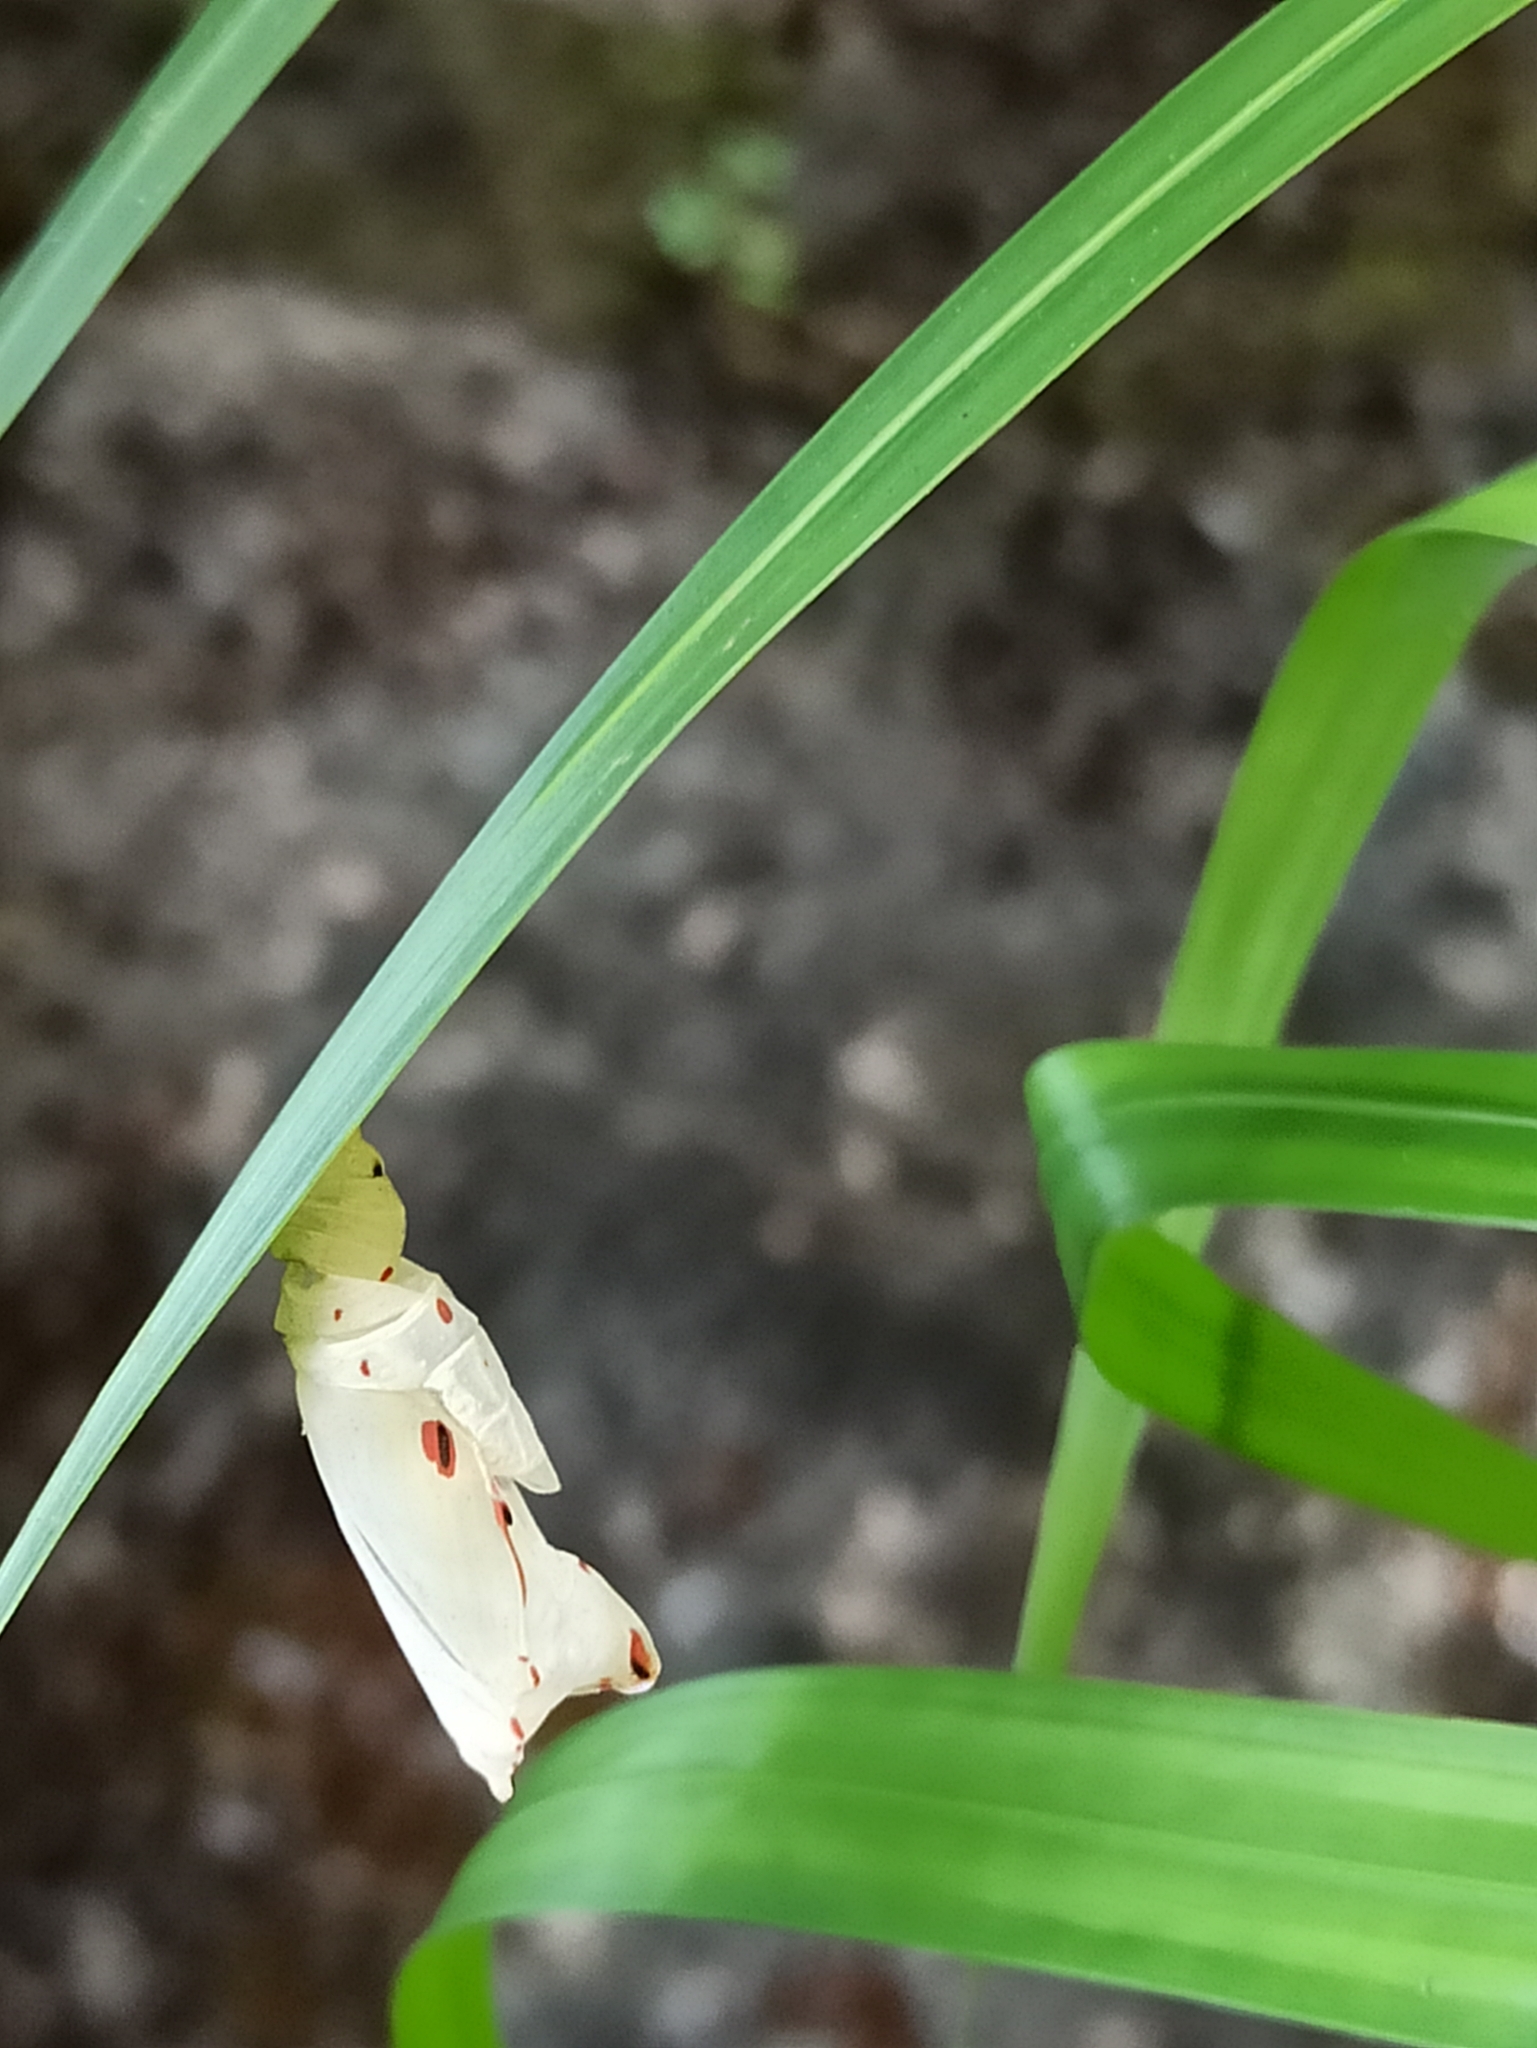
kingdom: Animalia
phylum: Arthropoda
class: Insecta
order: Lepidoptera
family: Nymphalidae
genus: Elymnias
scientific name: Elymnias caudata
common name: Tailed palmfly
